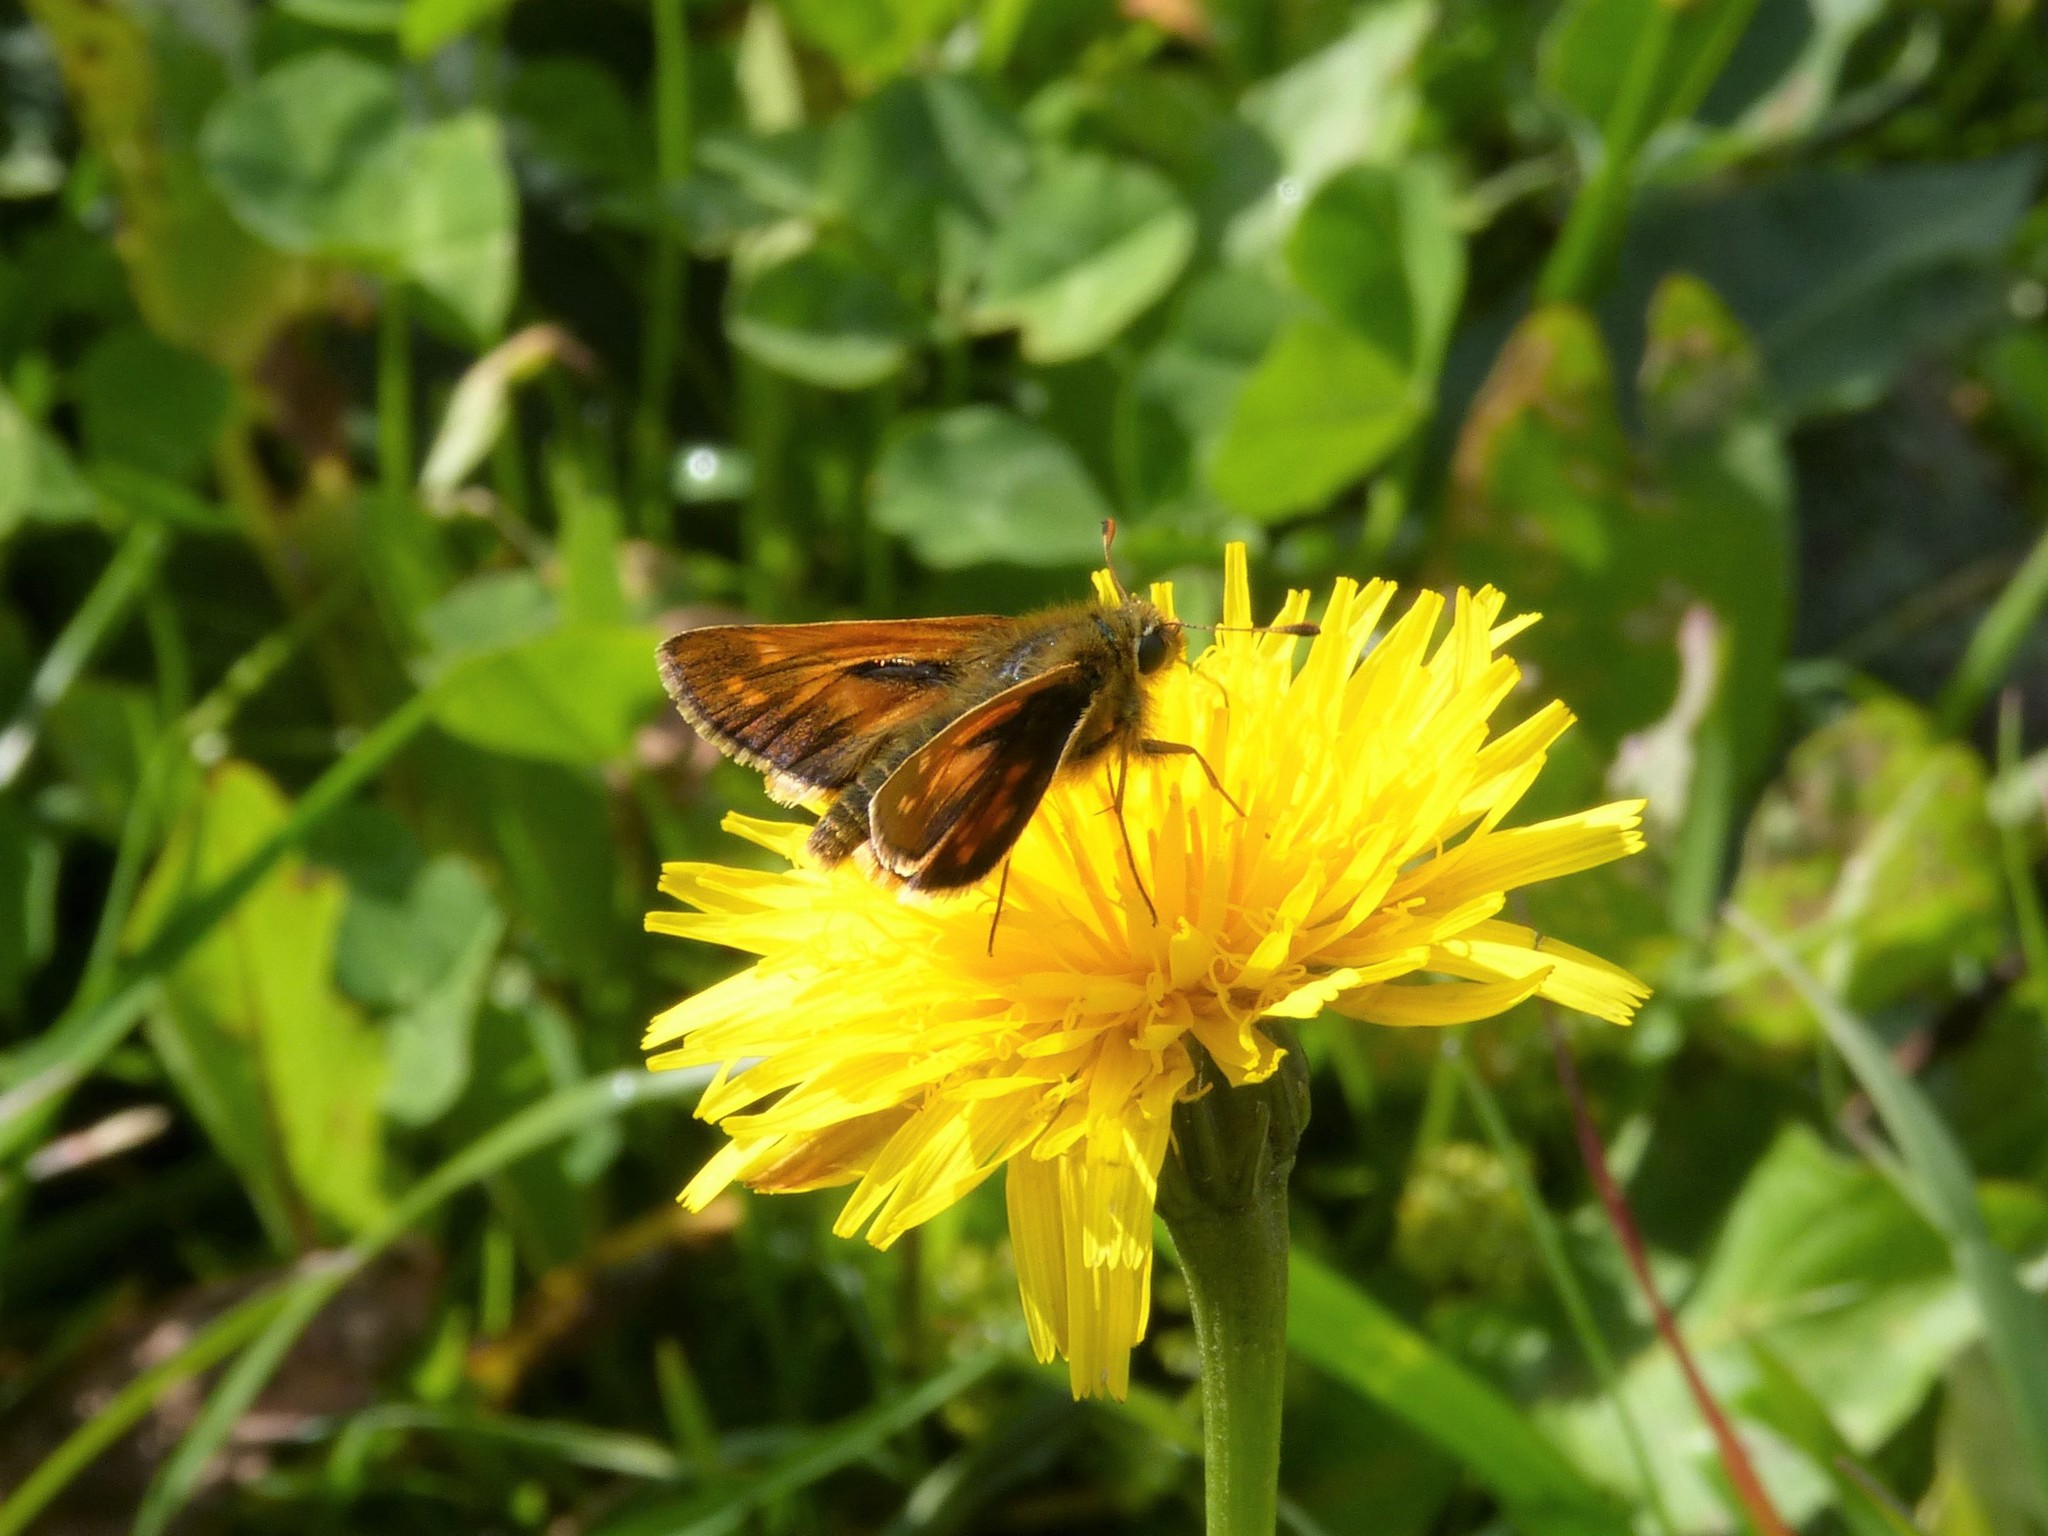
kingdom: Animalia
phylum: Arthropoda
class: Insecta
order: Lepidoptera
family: Hesperiidae
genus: Hesperia
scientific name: Hesperia comma
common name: Common branded skipper
